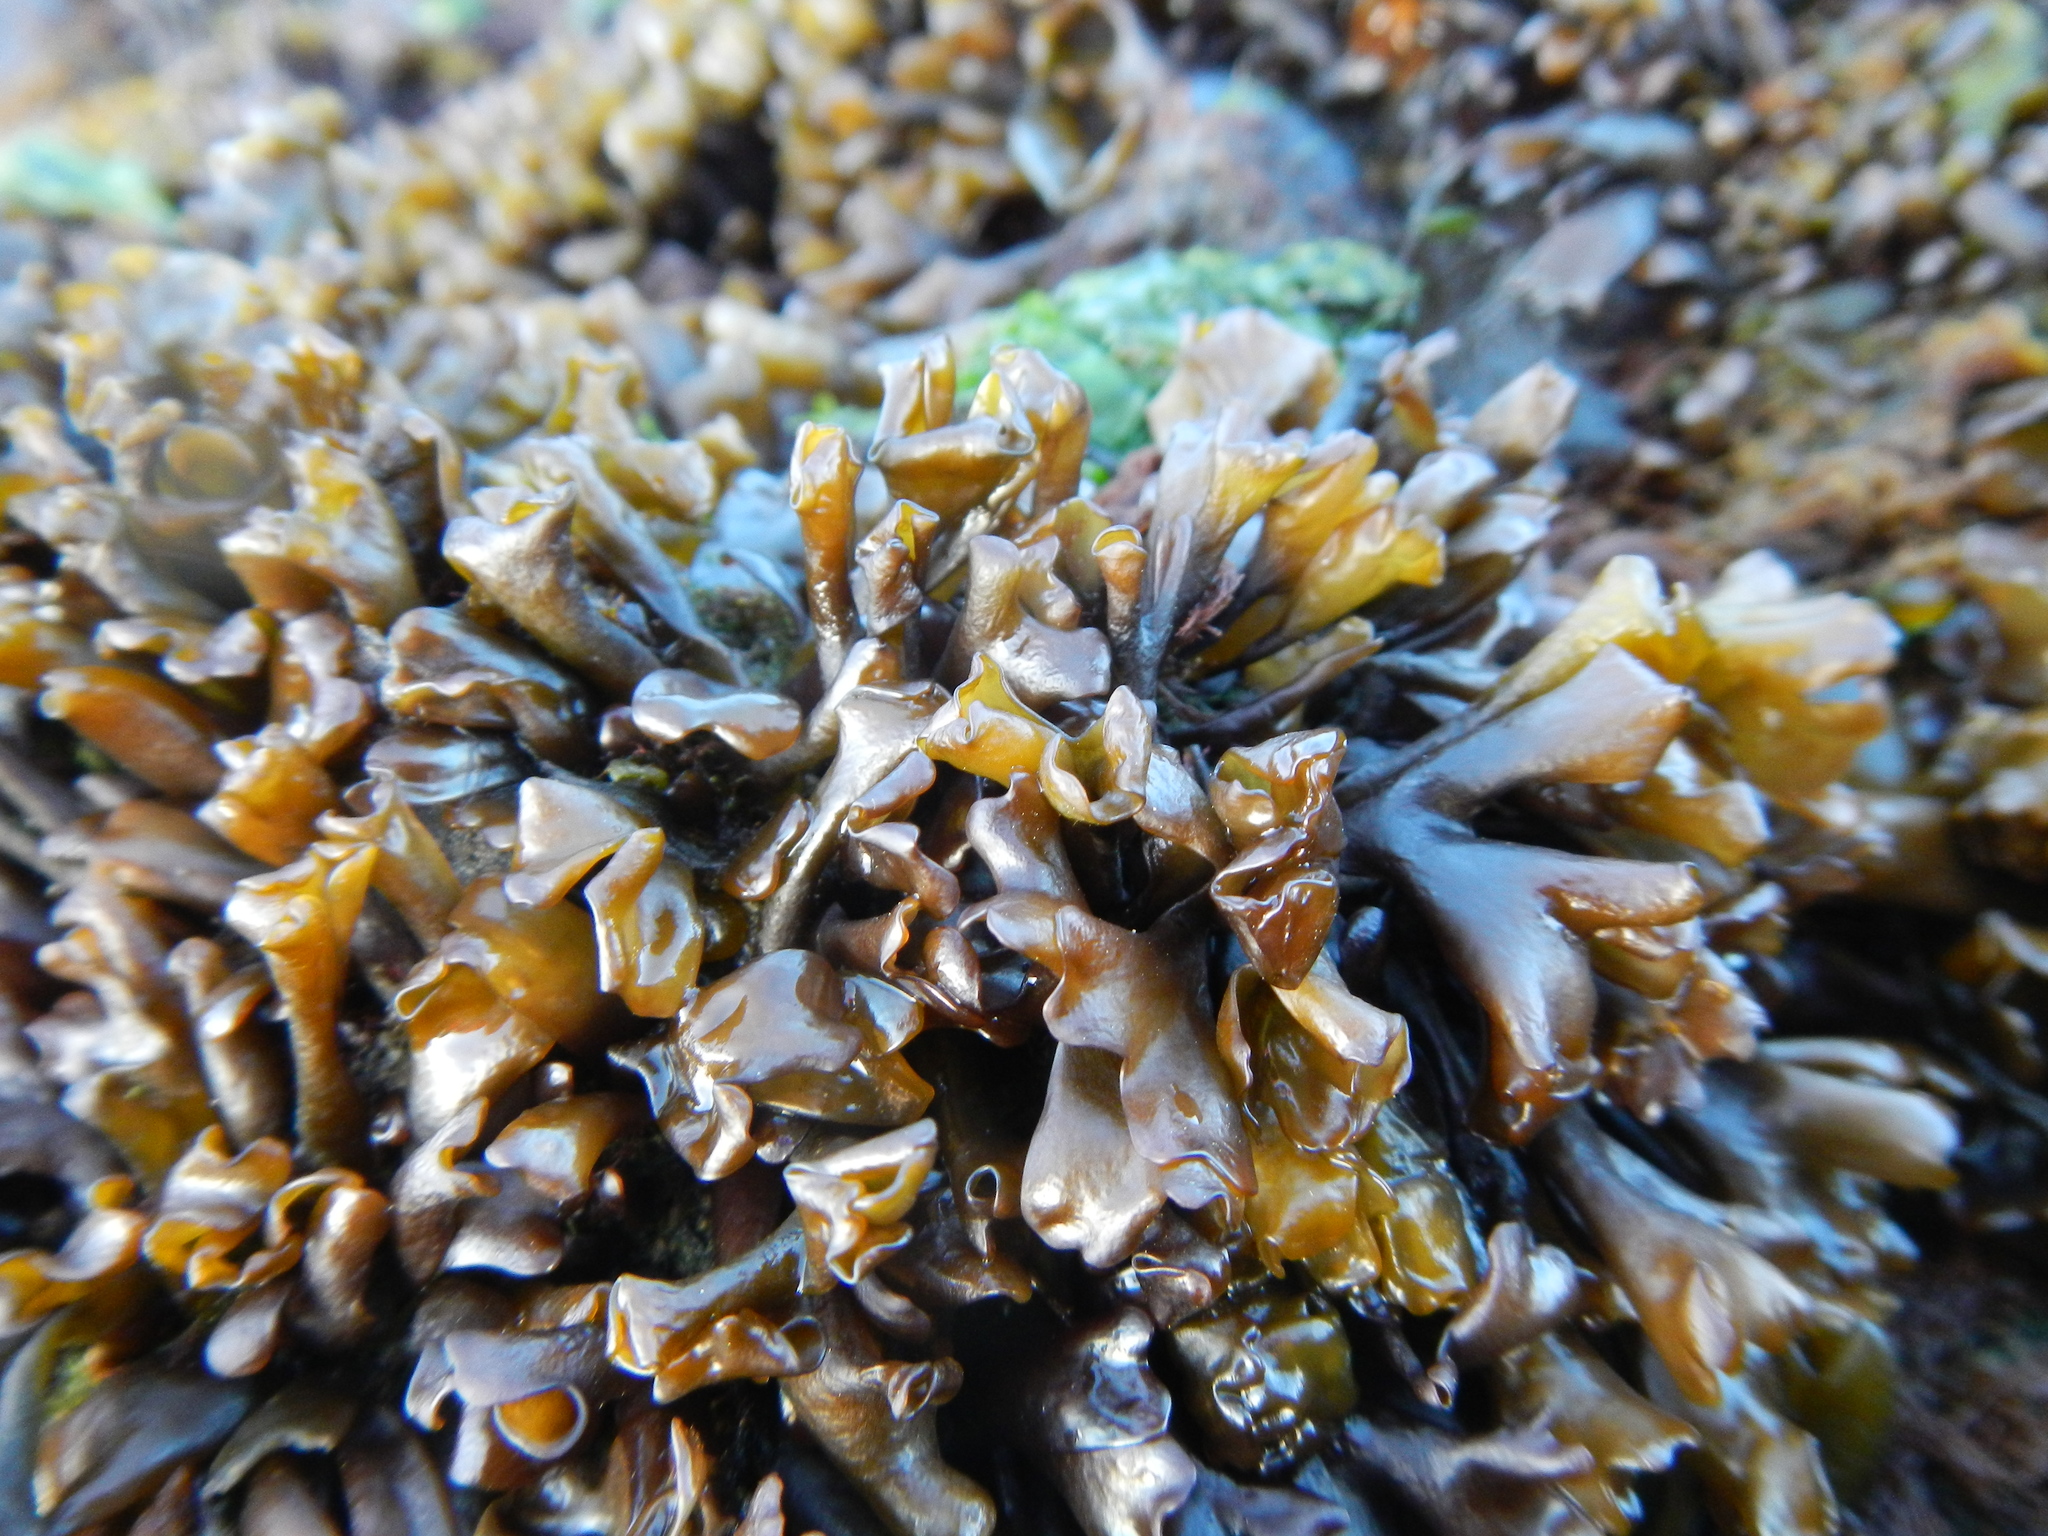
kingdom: Plantae
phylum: Rhodophyta
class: Florideophyceae
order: Gigartinales
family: Gigartinaceae
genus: Iridaea
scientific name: Iridaea tuberculosa
